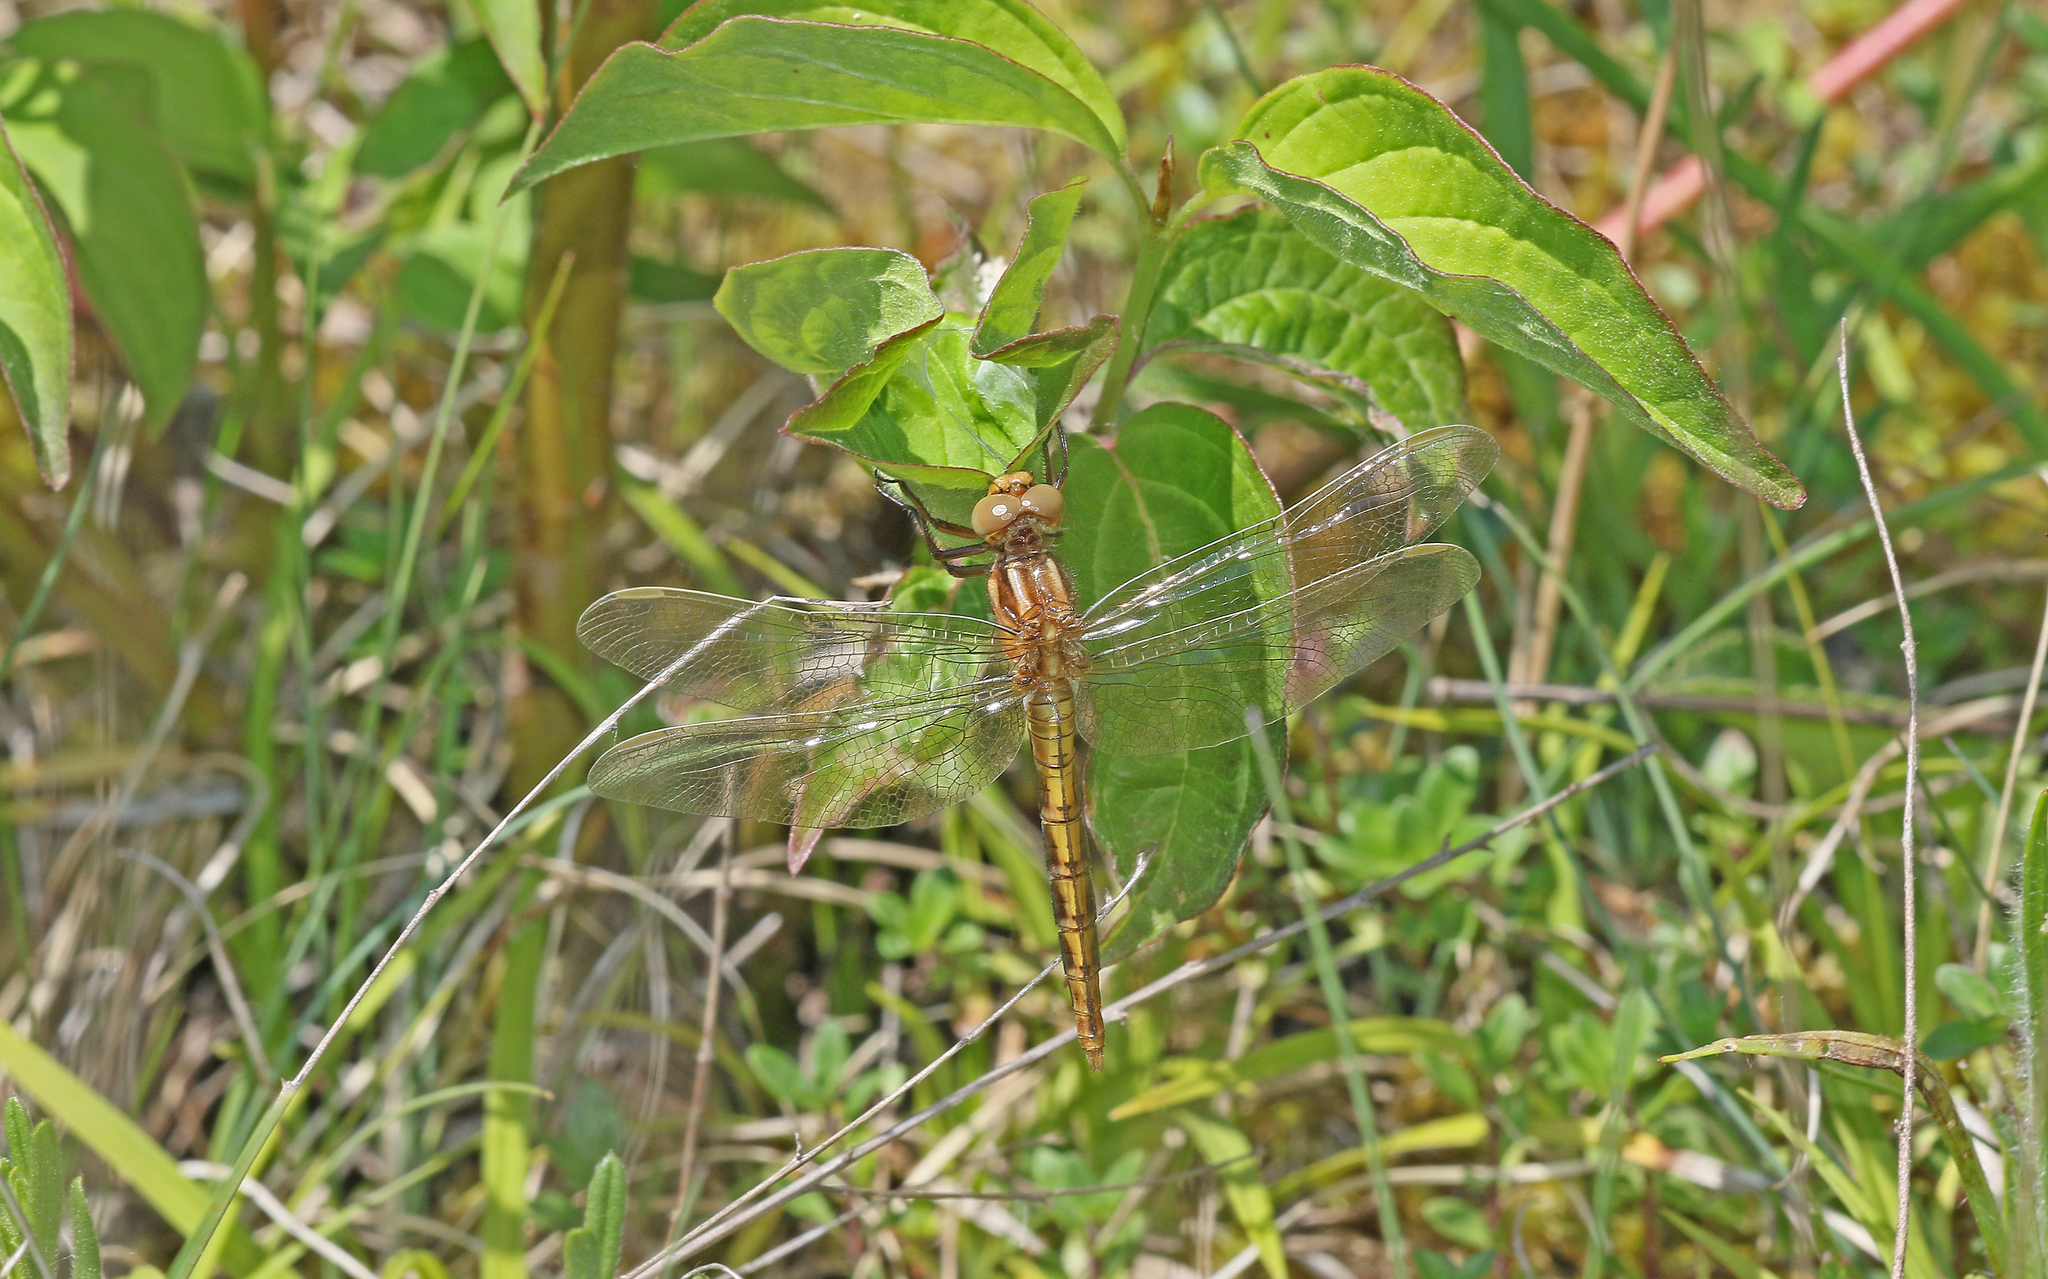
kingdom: Animalia
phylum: Arthropoda
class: Insecta
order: Odonata
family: Libellulidae
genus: Orthetrum
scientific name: Orthetrum coerulescens
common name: Keeled skimmer
